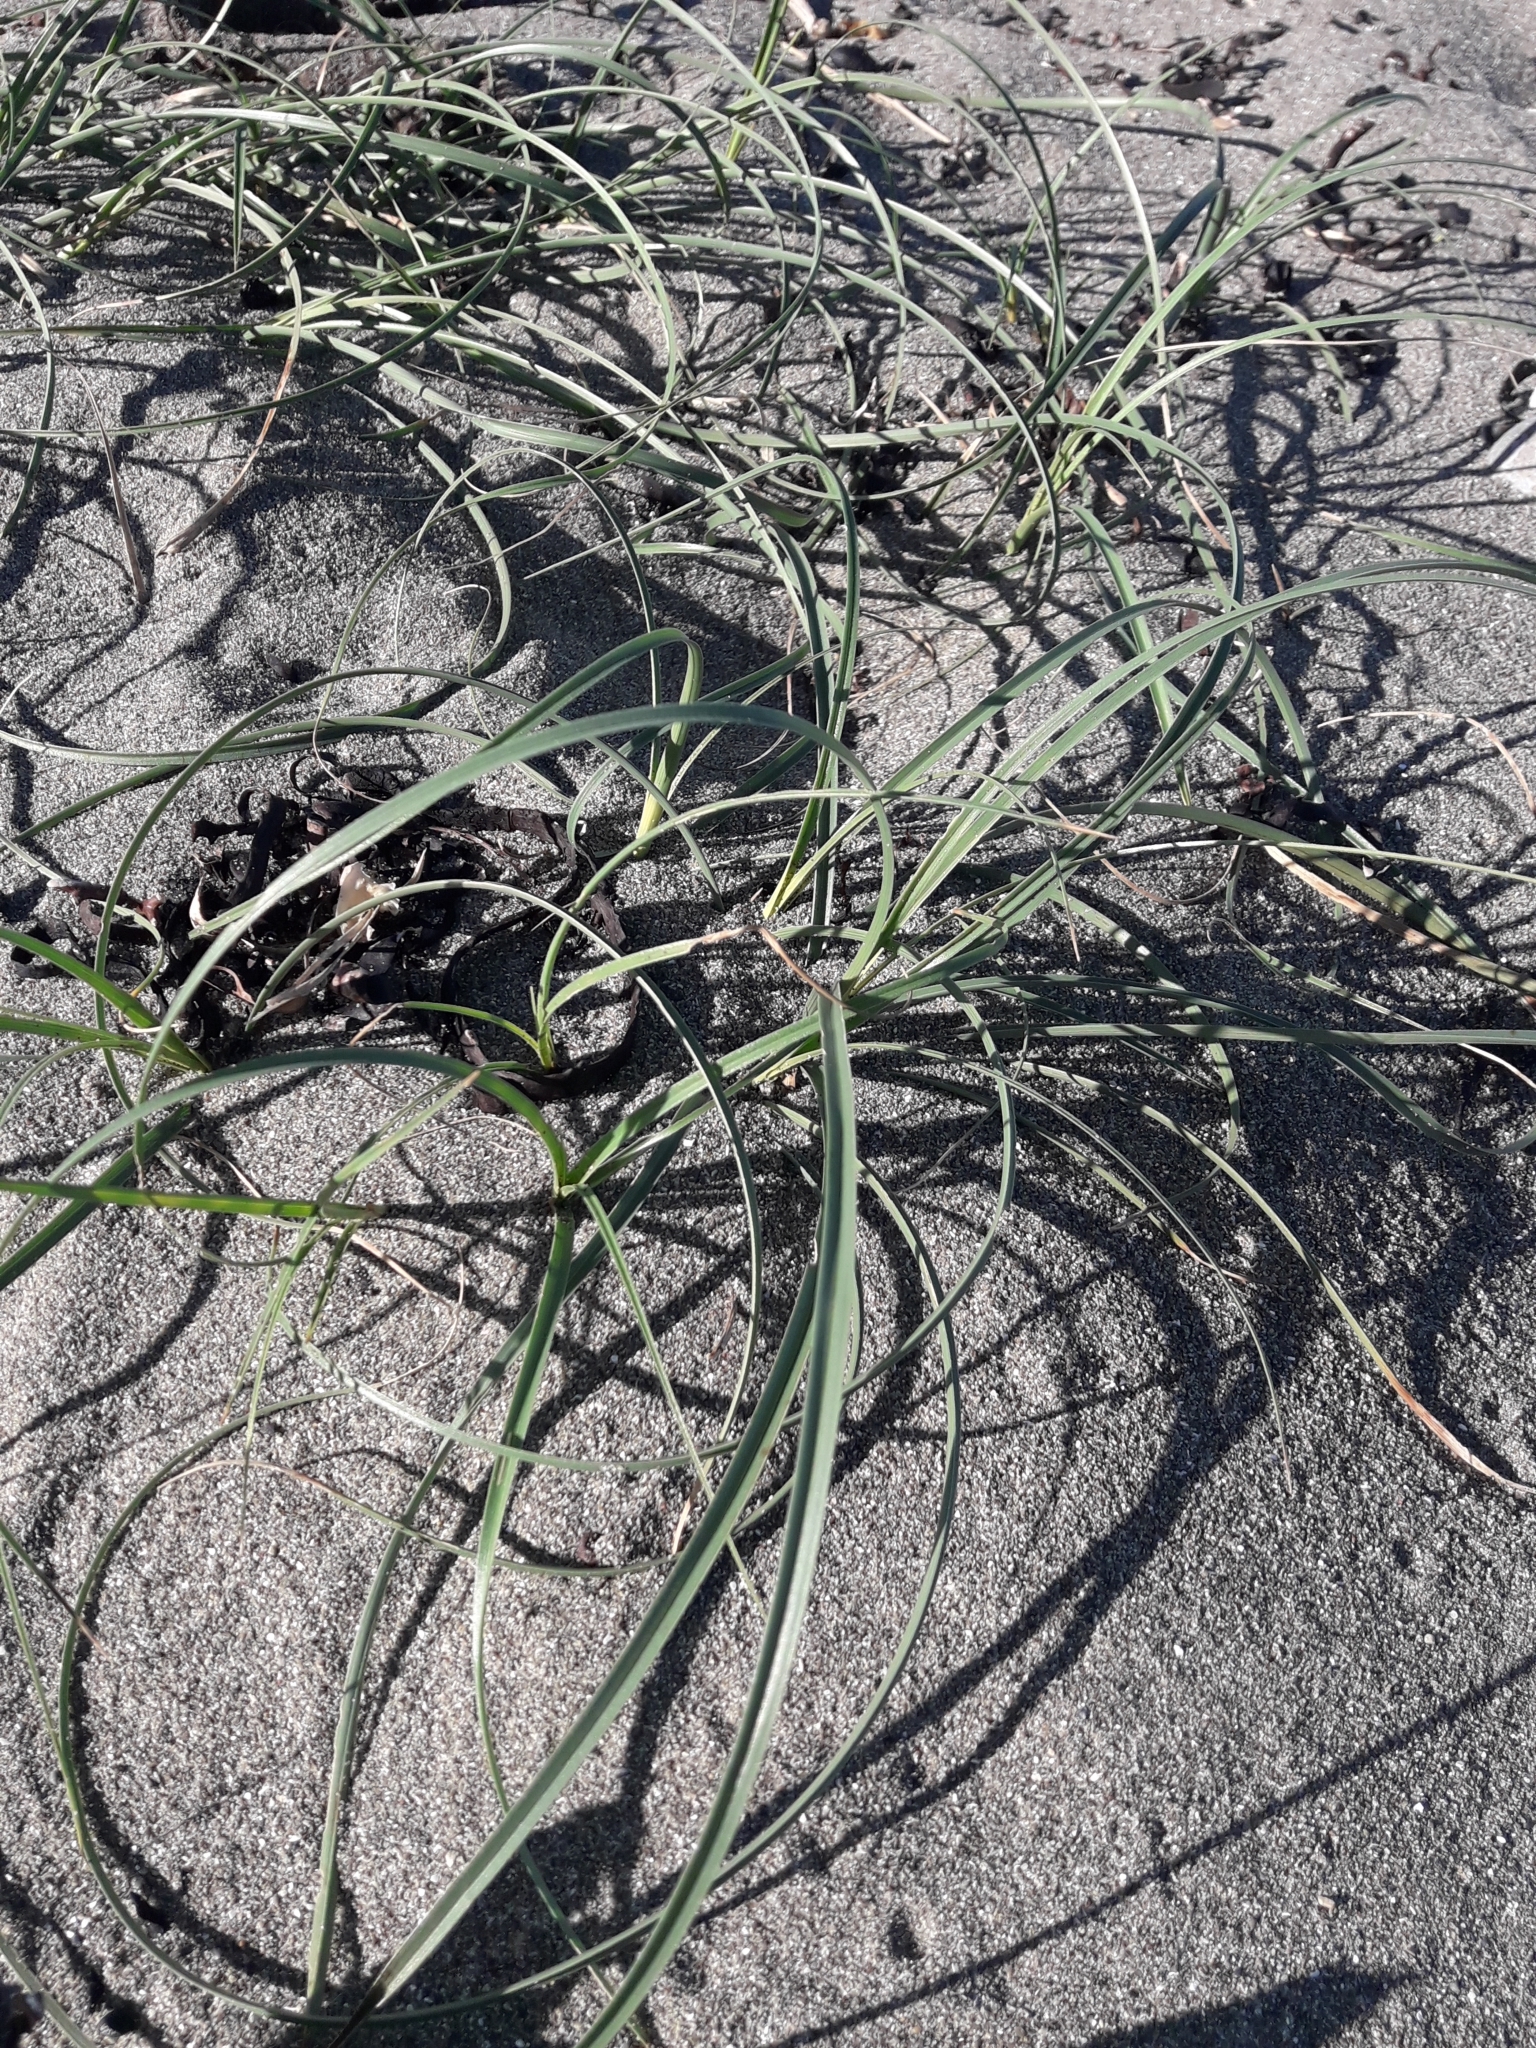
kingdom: Plantae
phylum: Tracheophyta
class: Liliopsida
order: Poales
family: Cyperaceae
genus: Carex
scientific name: Carex pumila
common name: Dwarf sedge
